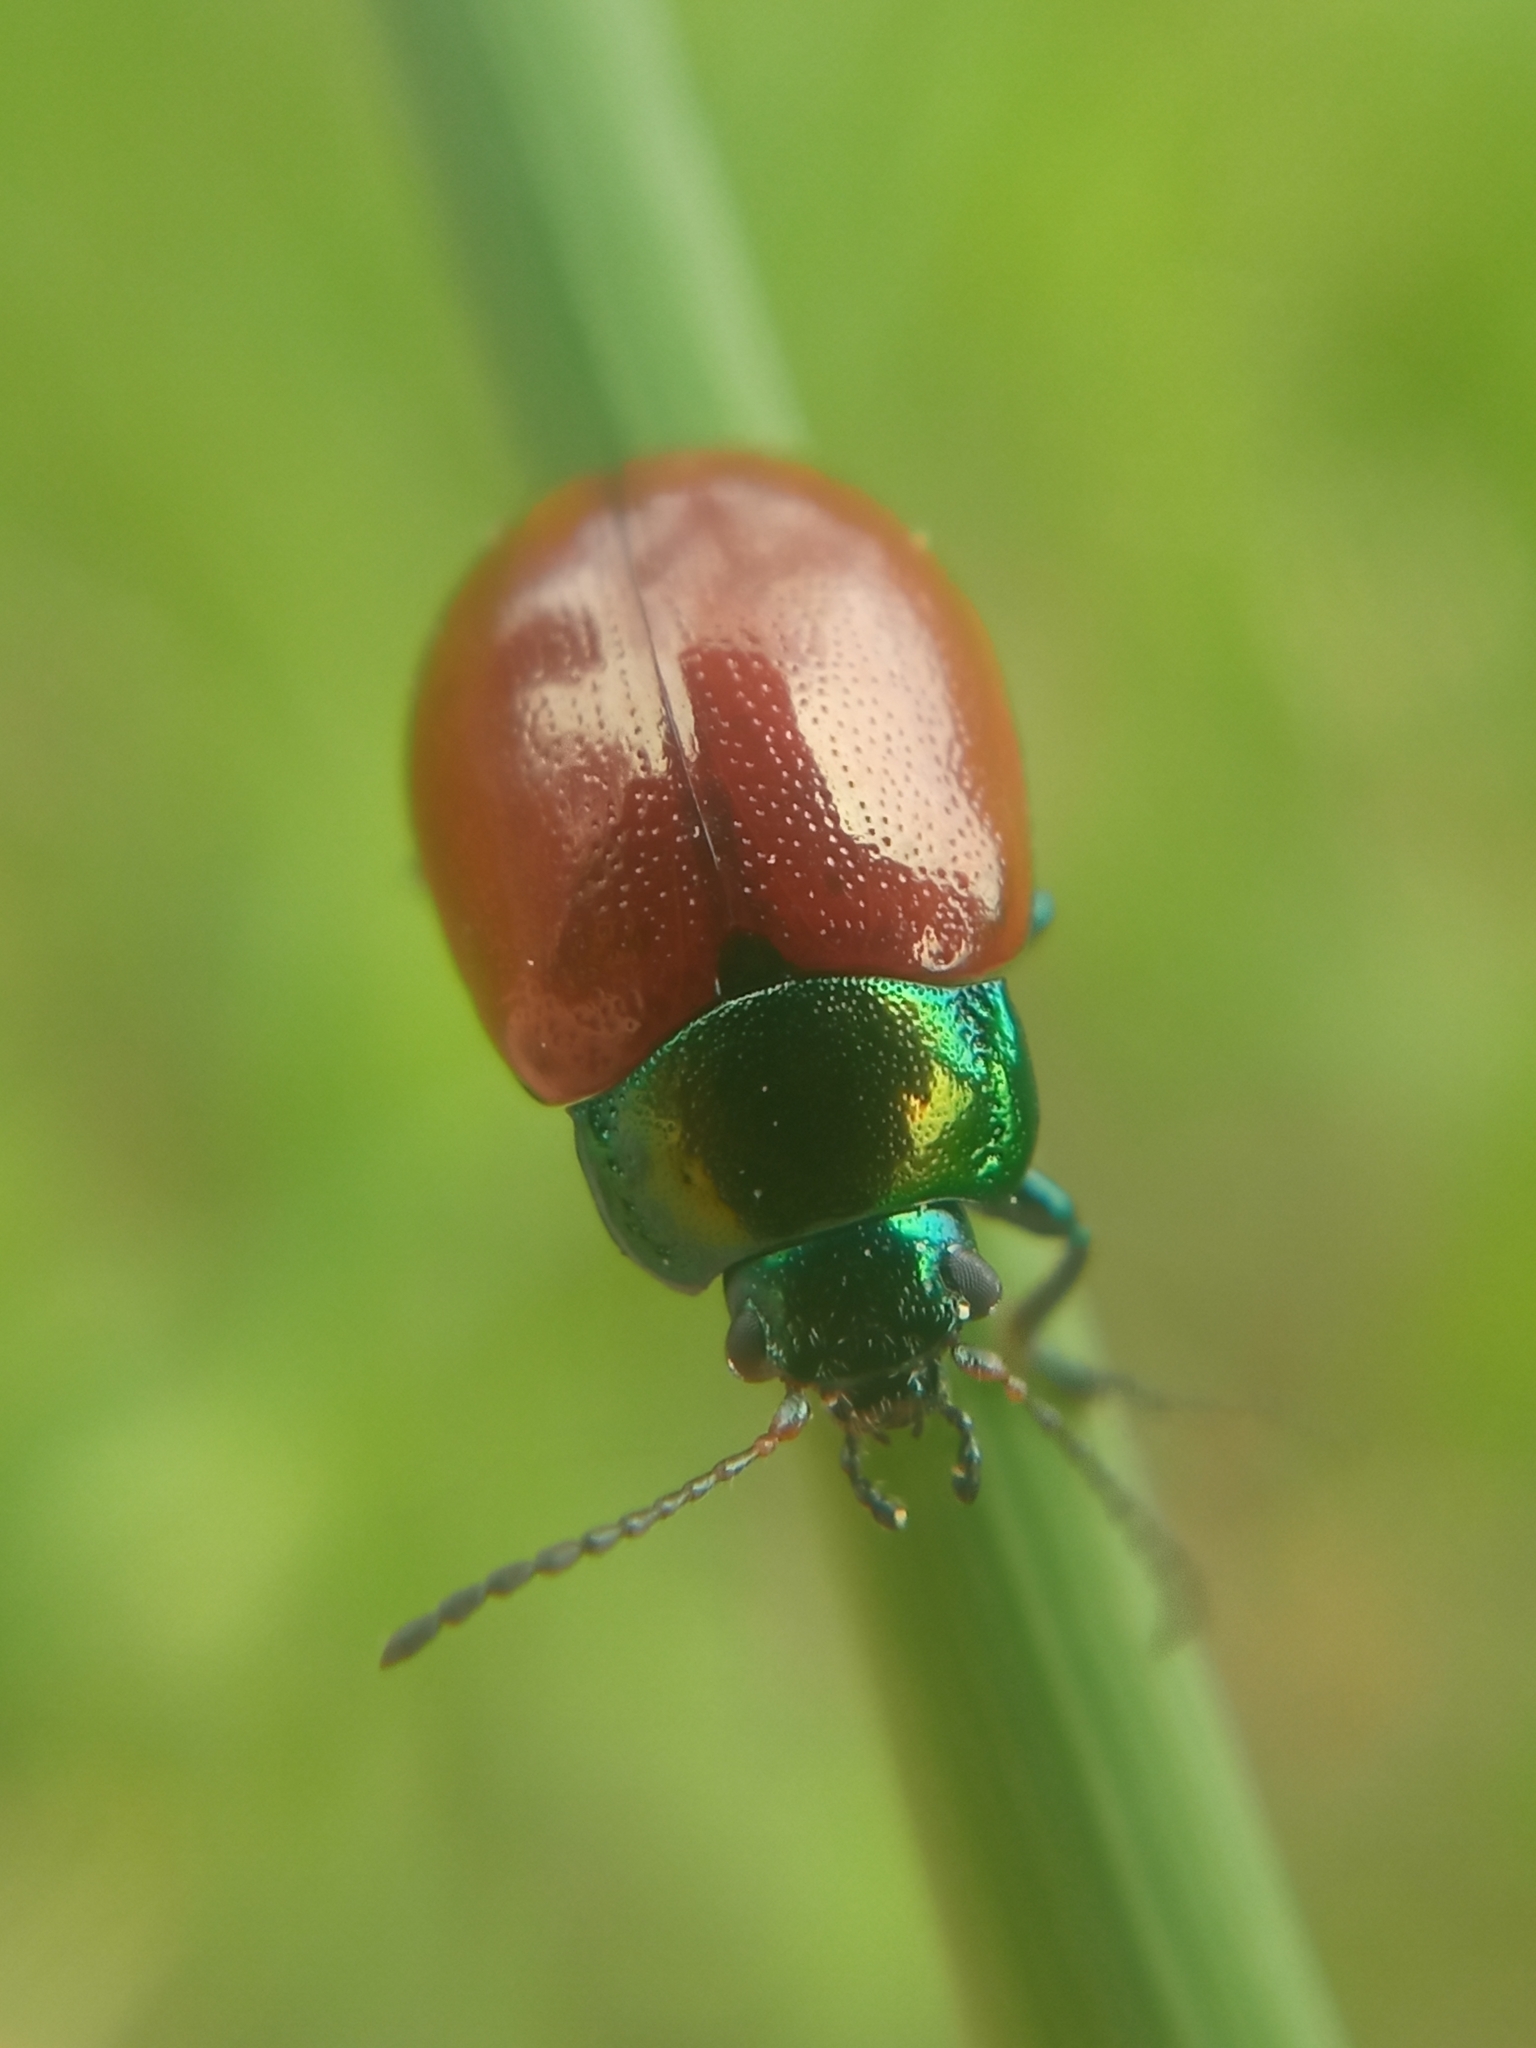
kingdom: Animalia
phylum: Arthropoda
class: Insecta
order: Coleoptera
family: Chrysomelidae
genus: Chrysomela
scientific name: Chrysomela polita
